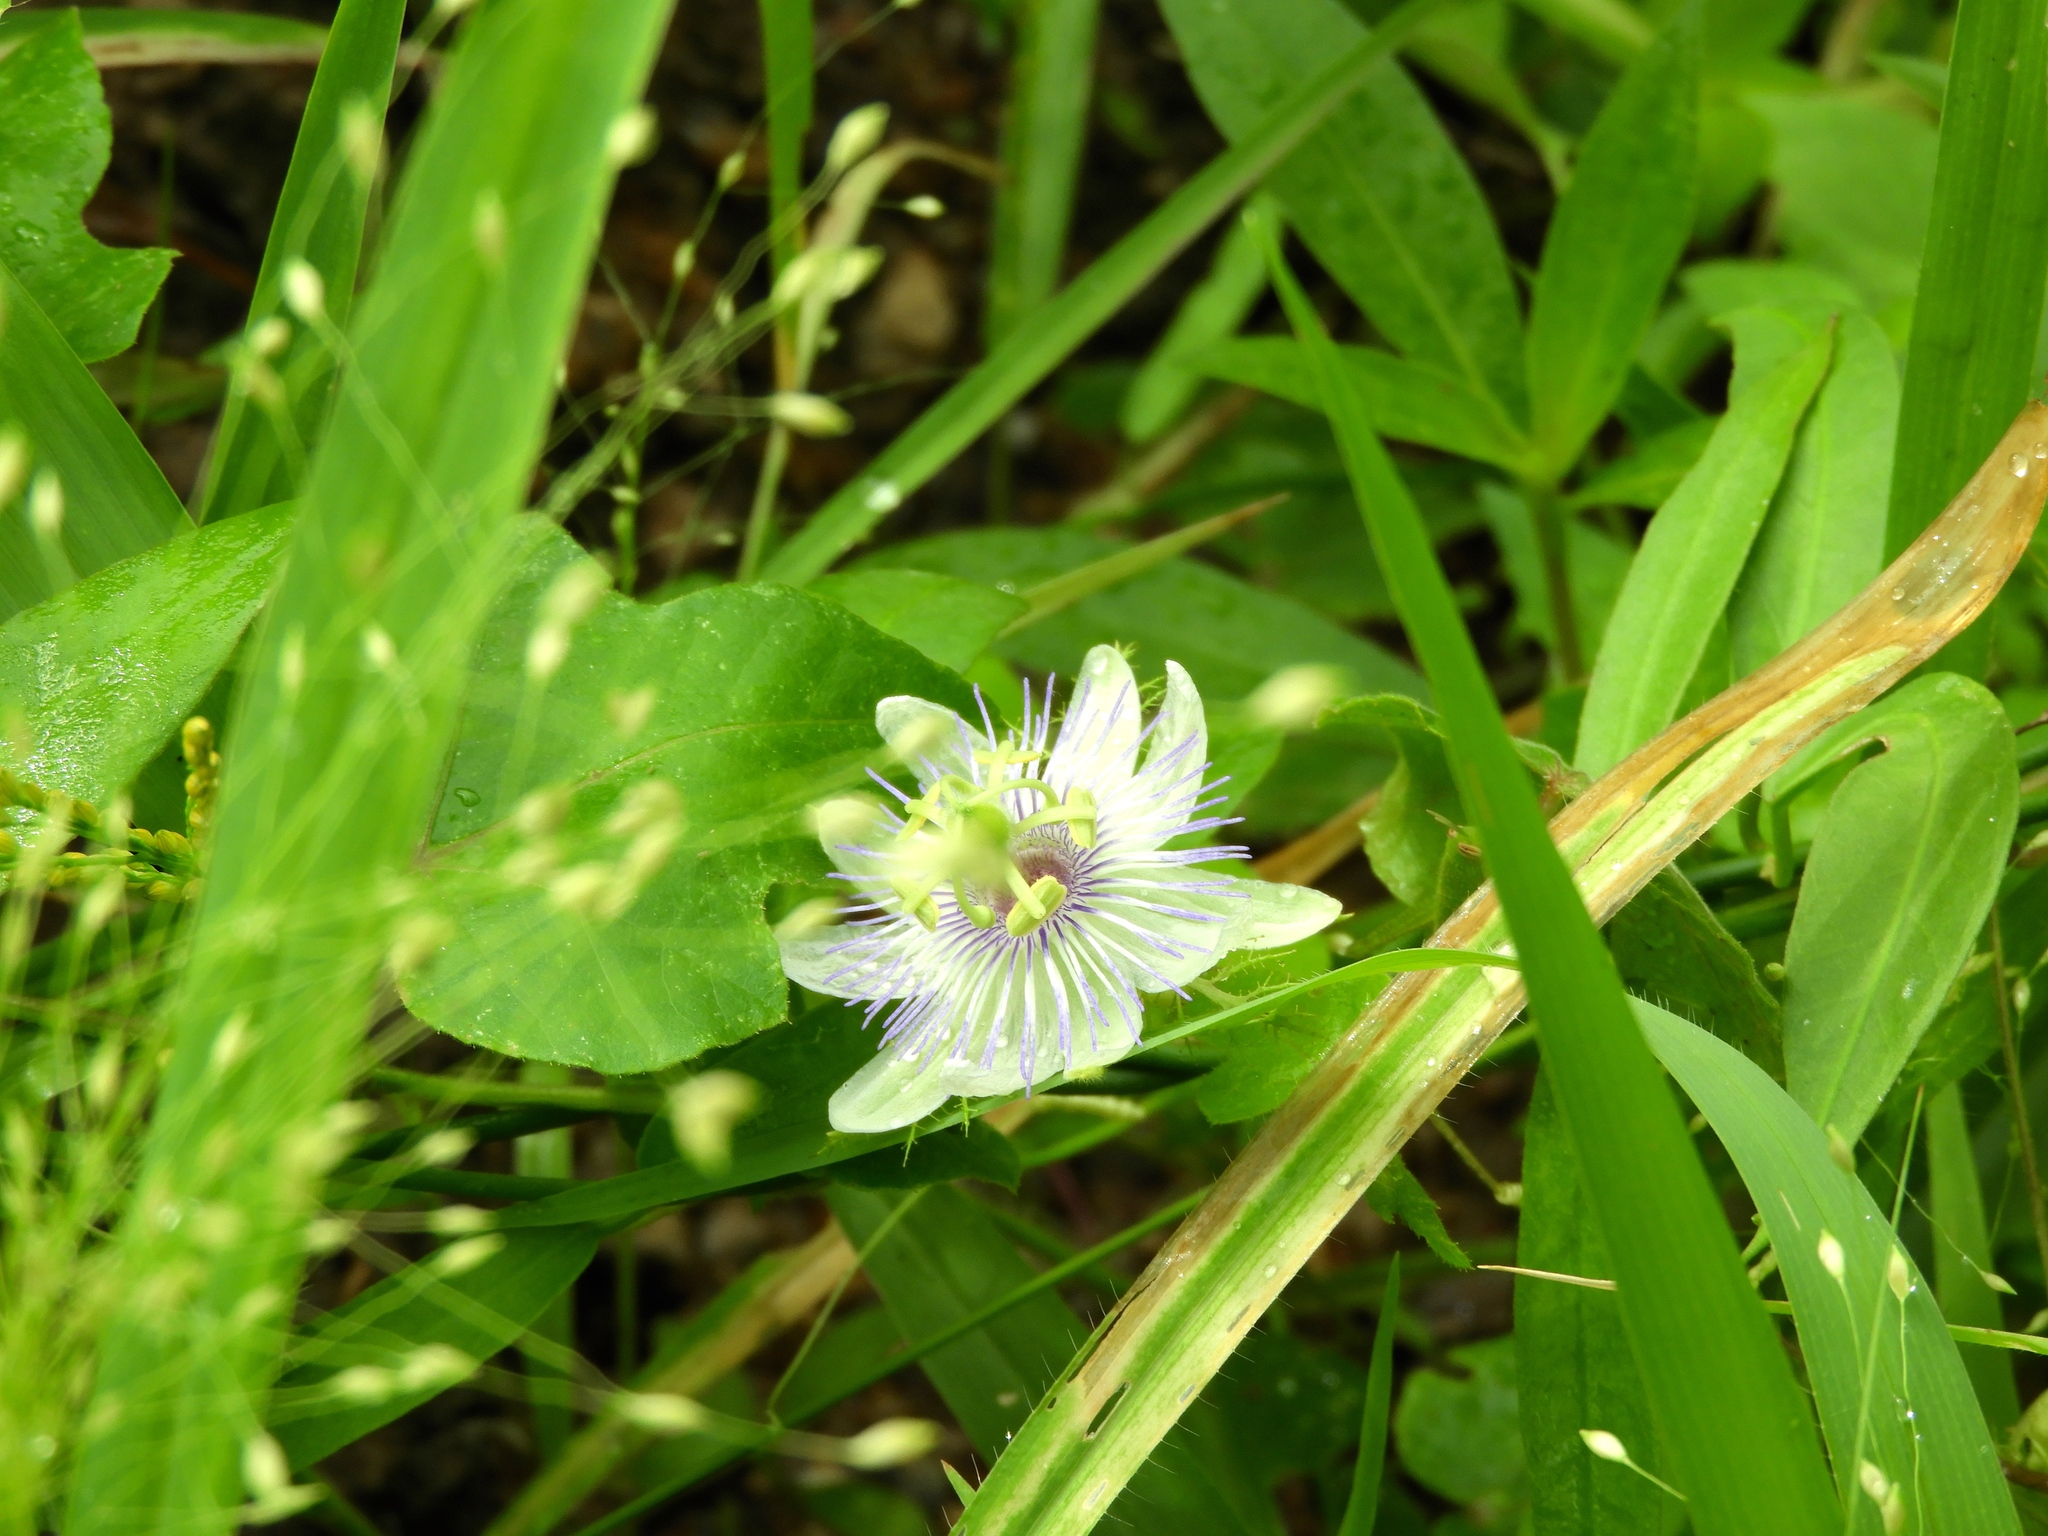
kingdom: Plantae
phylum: Tracheophyta
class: Magnoliopsida
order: Malpighiales
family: Passifloraceae
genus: Passiflora
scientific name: Passiflora foetida
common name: Fetid passionflower
